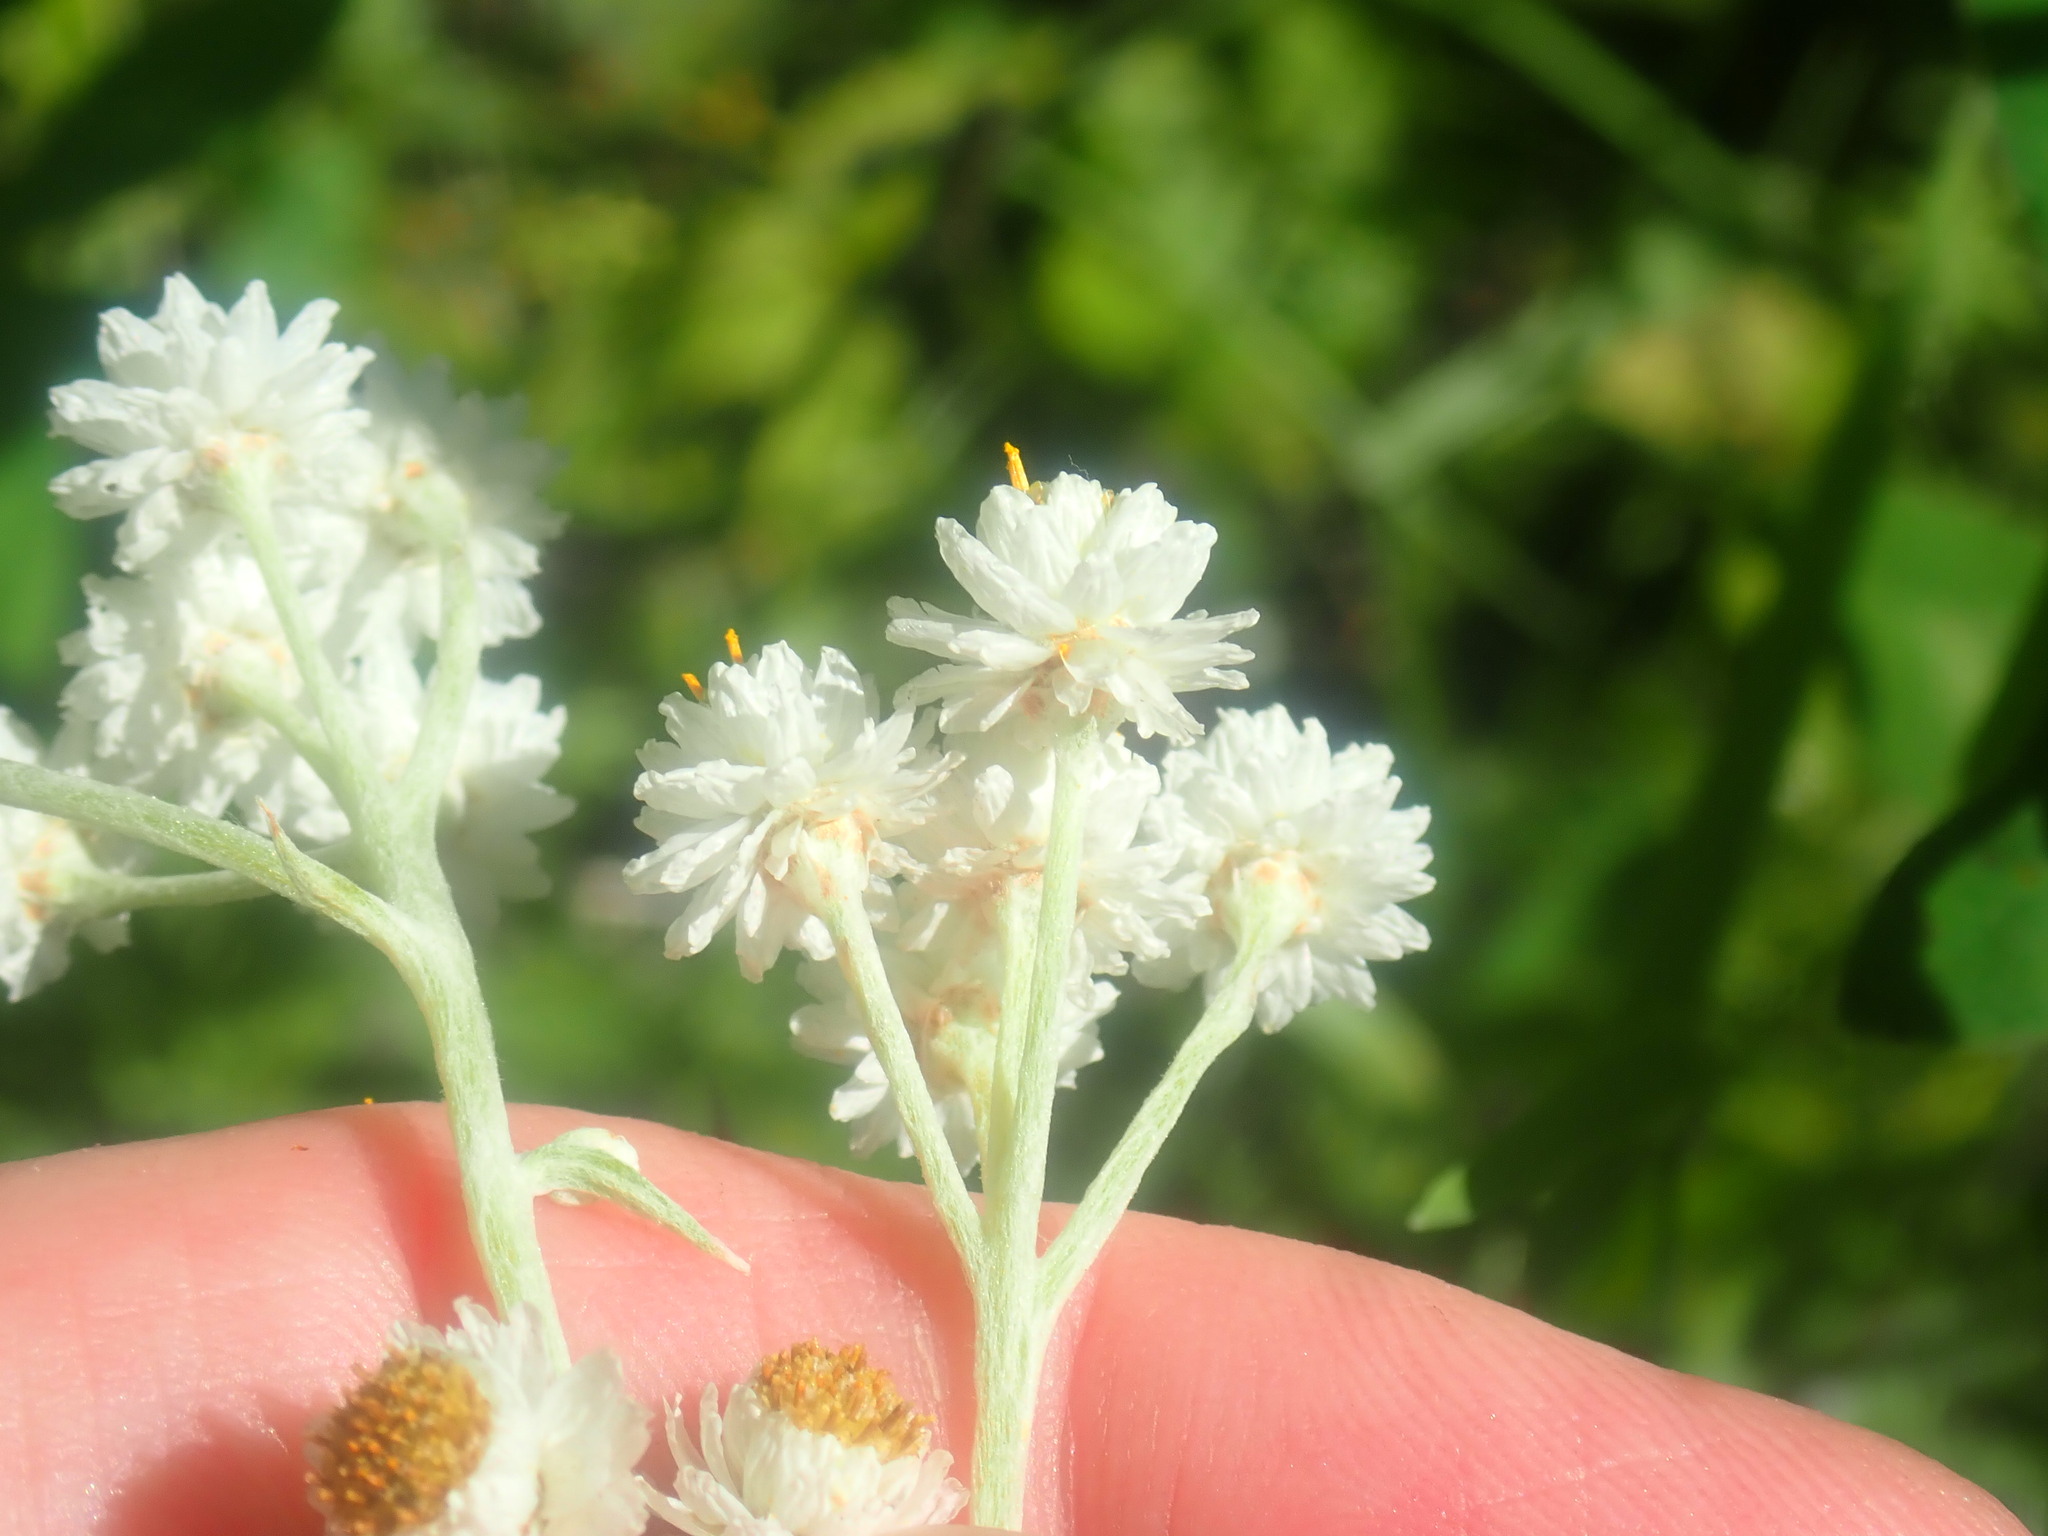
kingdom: Plantae
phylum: Tracheophyta
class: Magnoliopsida
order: Asterales
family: Asteraceae
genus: Anaphalis
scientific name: Anaphalis margaritacea
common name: Pearly everlasting
